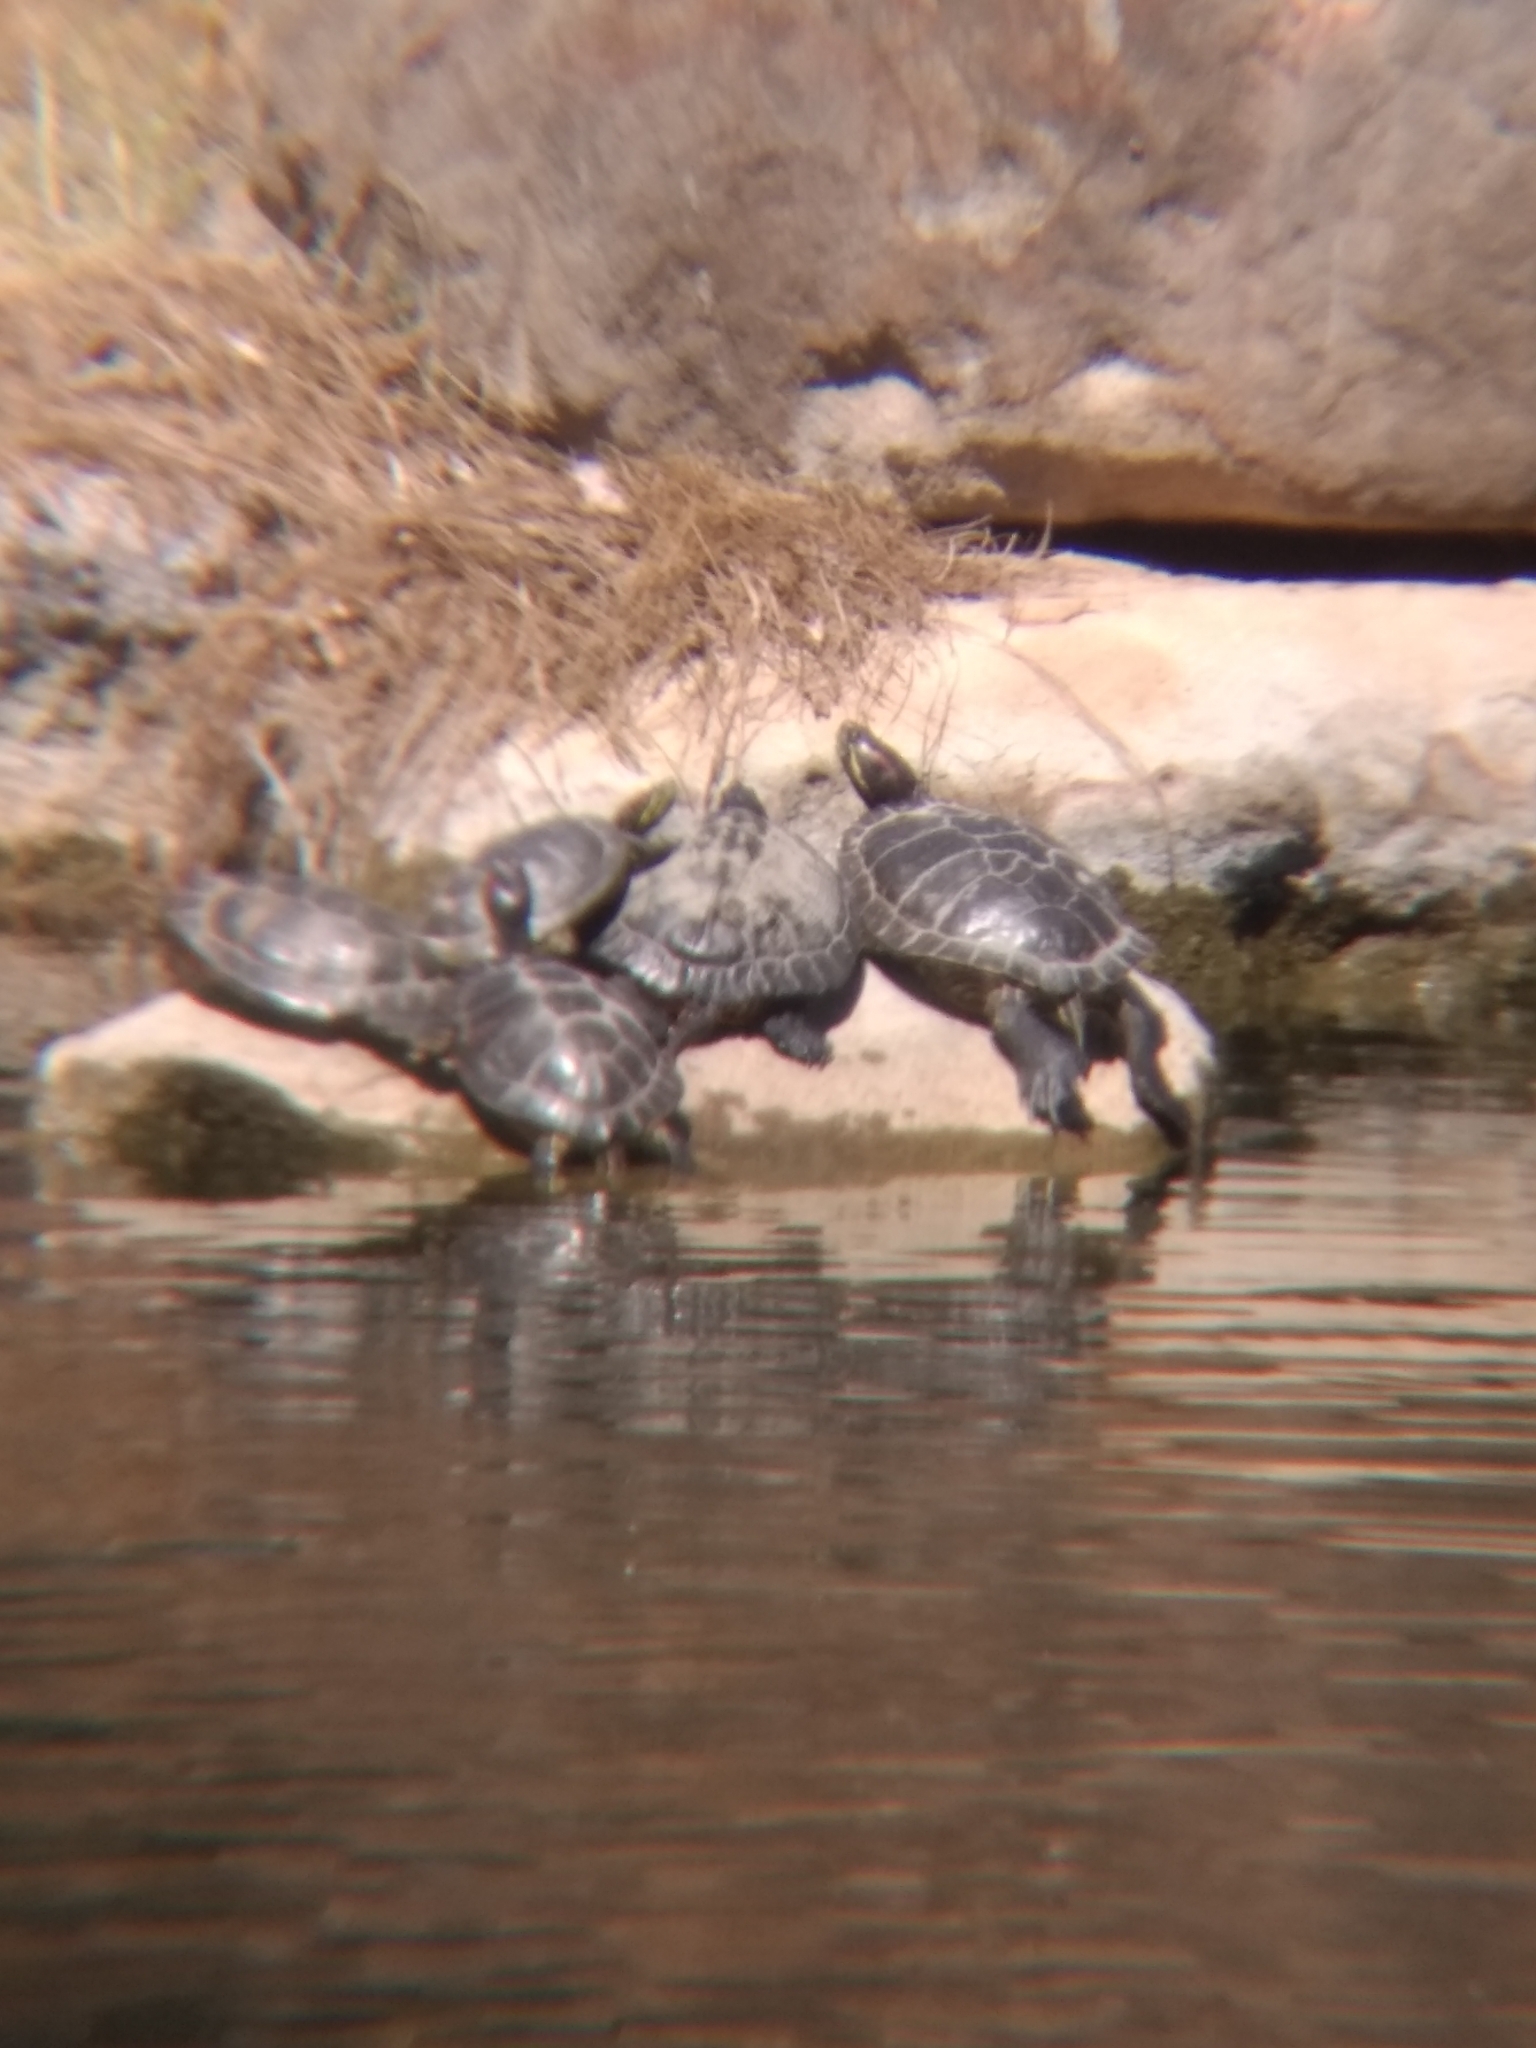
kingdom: Animalia
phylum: Chordata
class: Testudines
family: Emydidae
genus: Trachemys
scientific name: Trachemys scripta
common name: Slider
